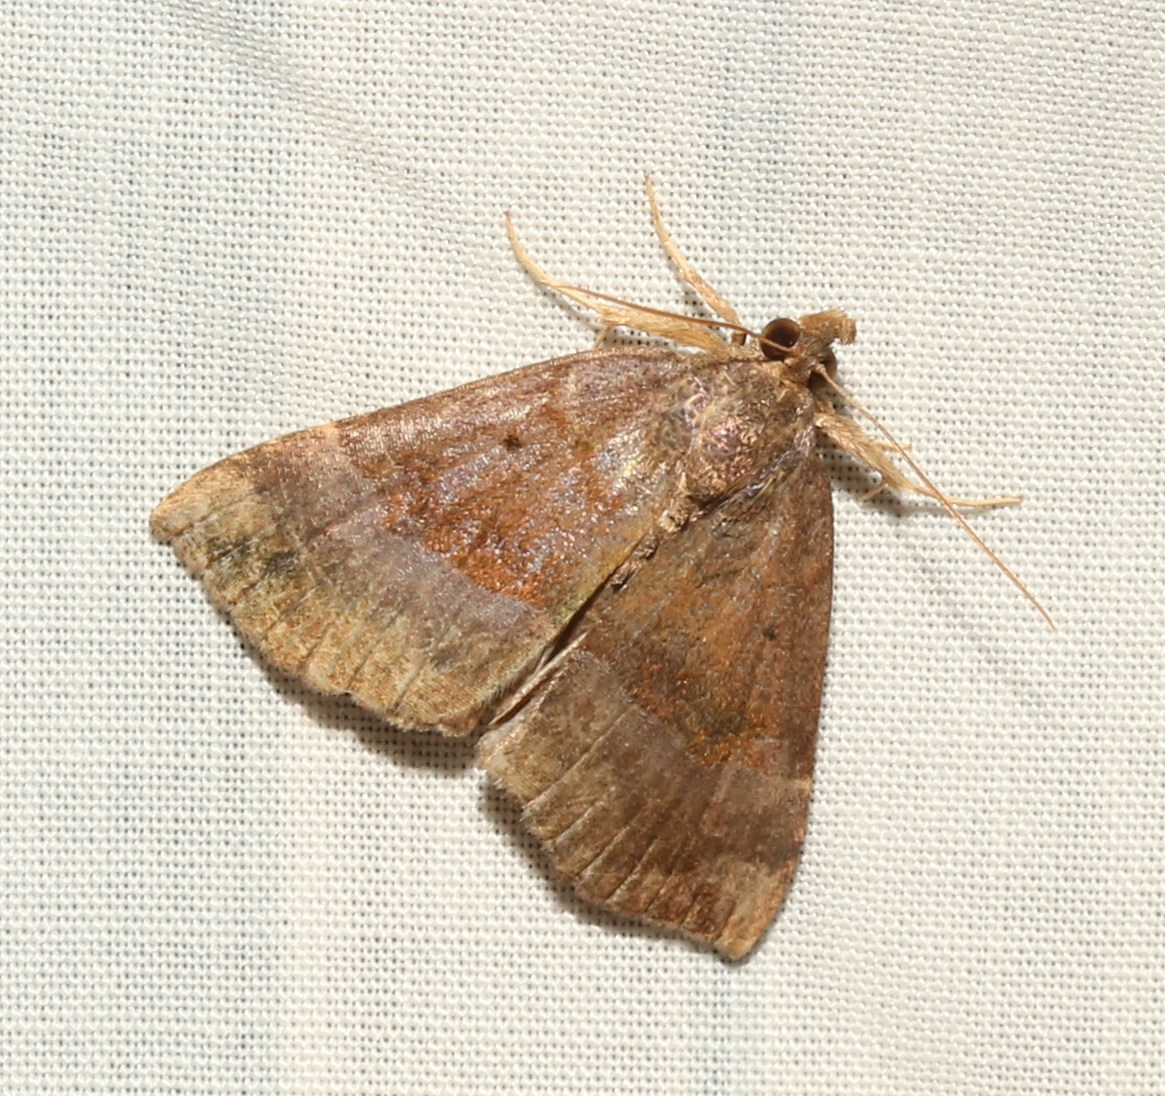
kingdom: Animalia
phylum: Arthropoda
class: Insecta
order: Lepidoptera
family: Erebidae
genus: Hypena
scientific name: Hypena madefactalis
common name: Gray-edged snout
